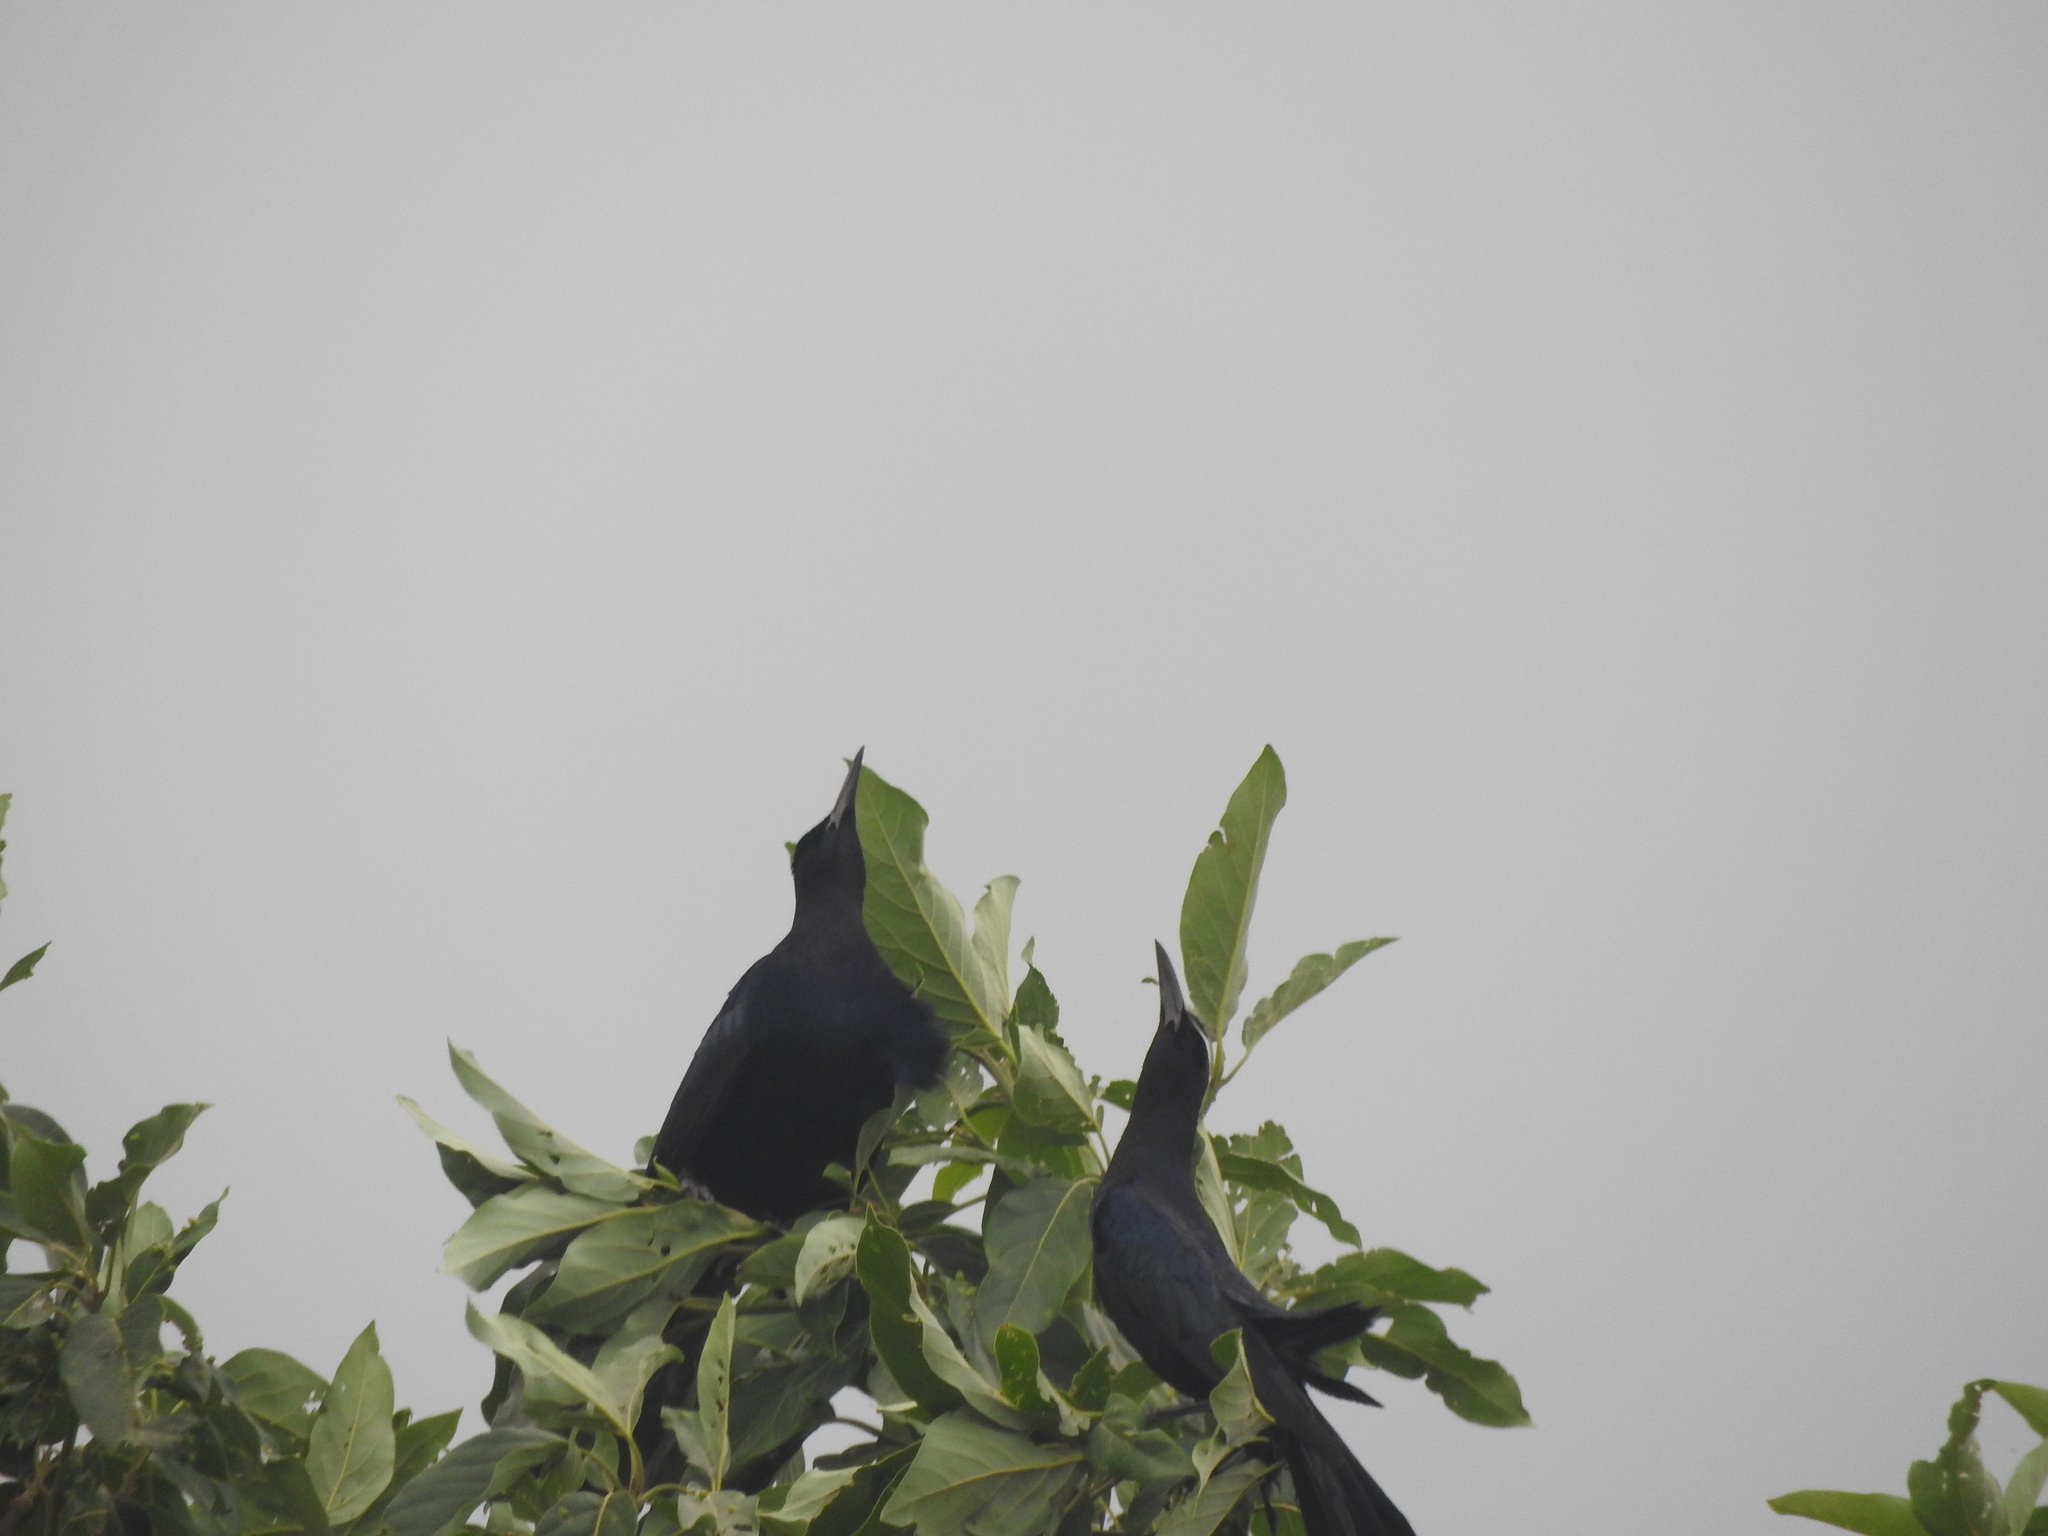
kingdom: Animalia
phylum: Chordata
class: Aves
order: Passeriformes
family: Icteridae
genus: Quiscalus
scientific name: Quiscalus mexicanus
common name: Great-tailed grackle
